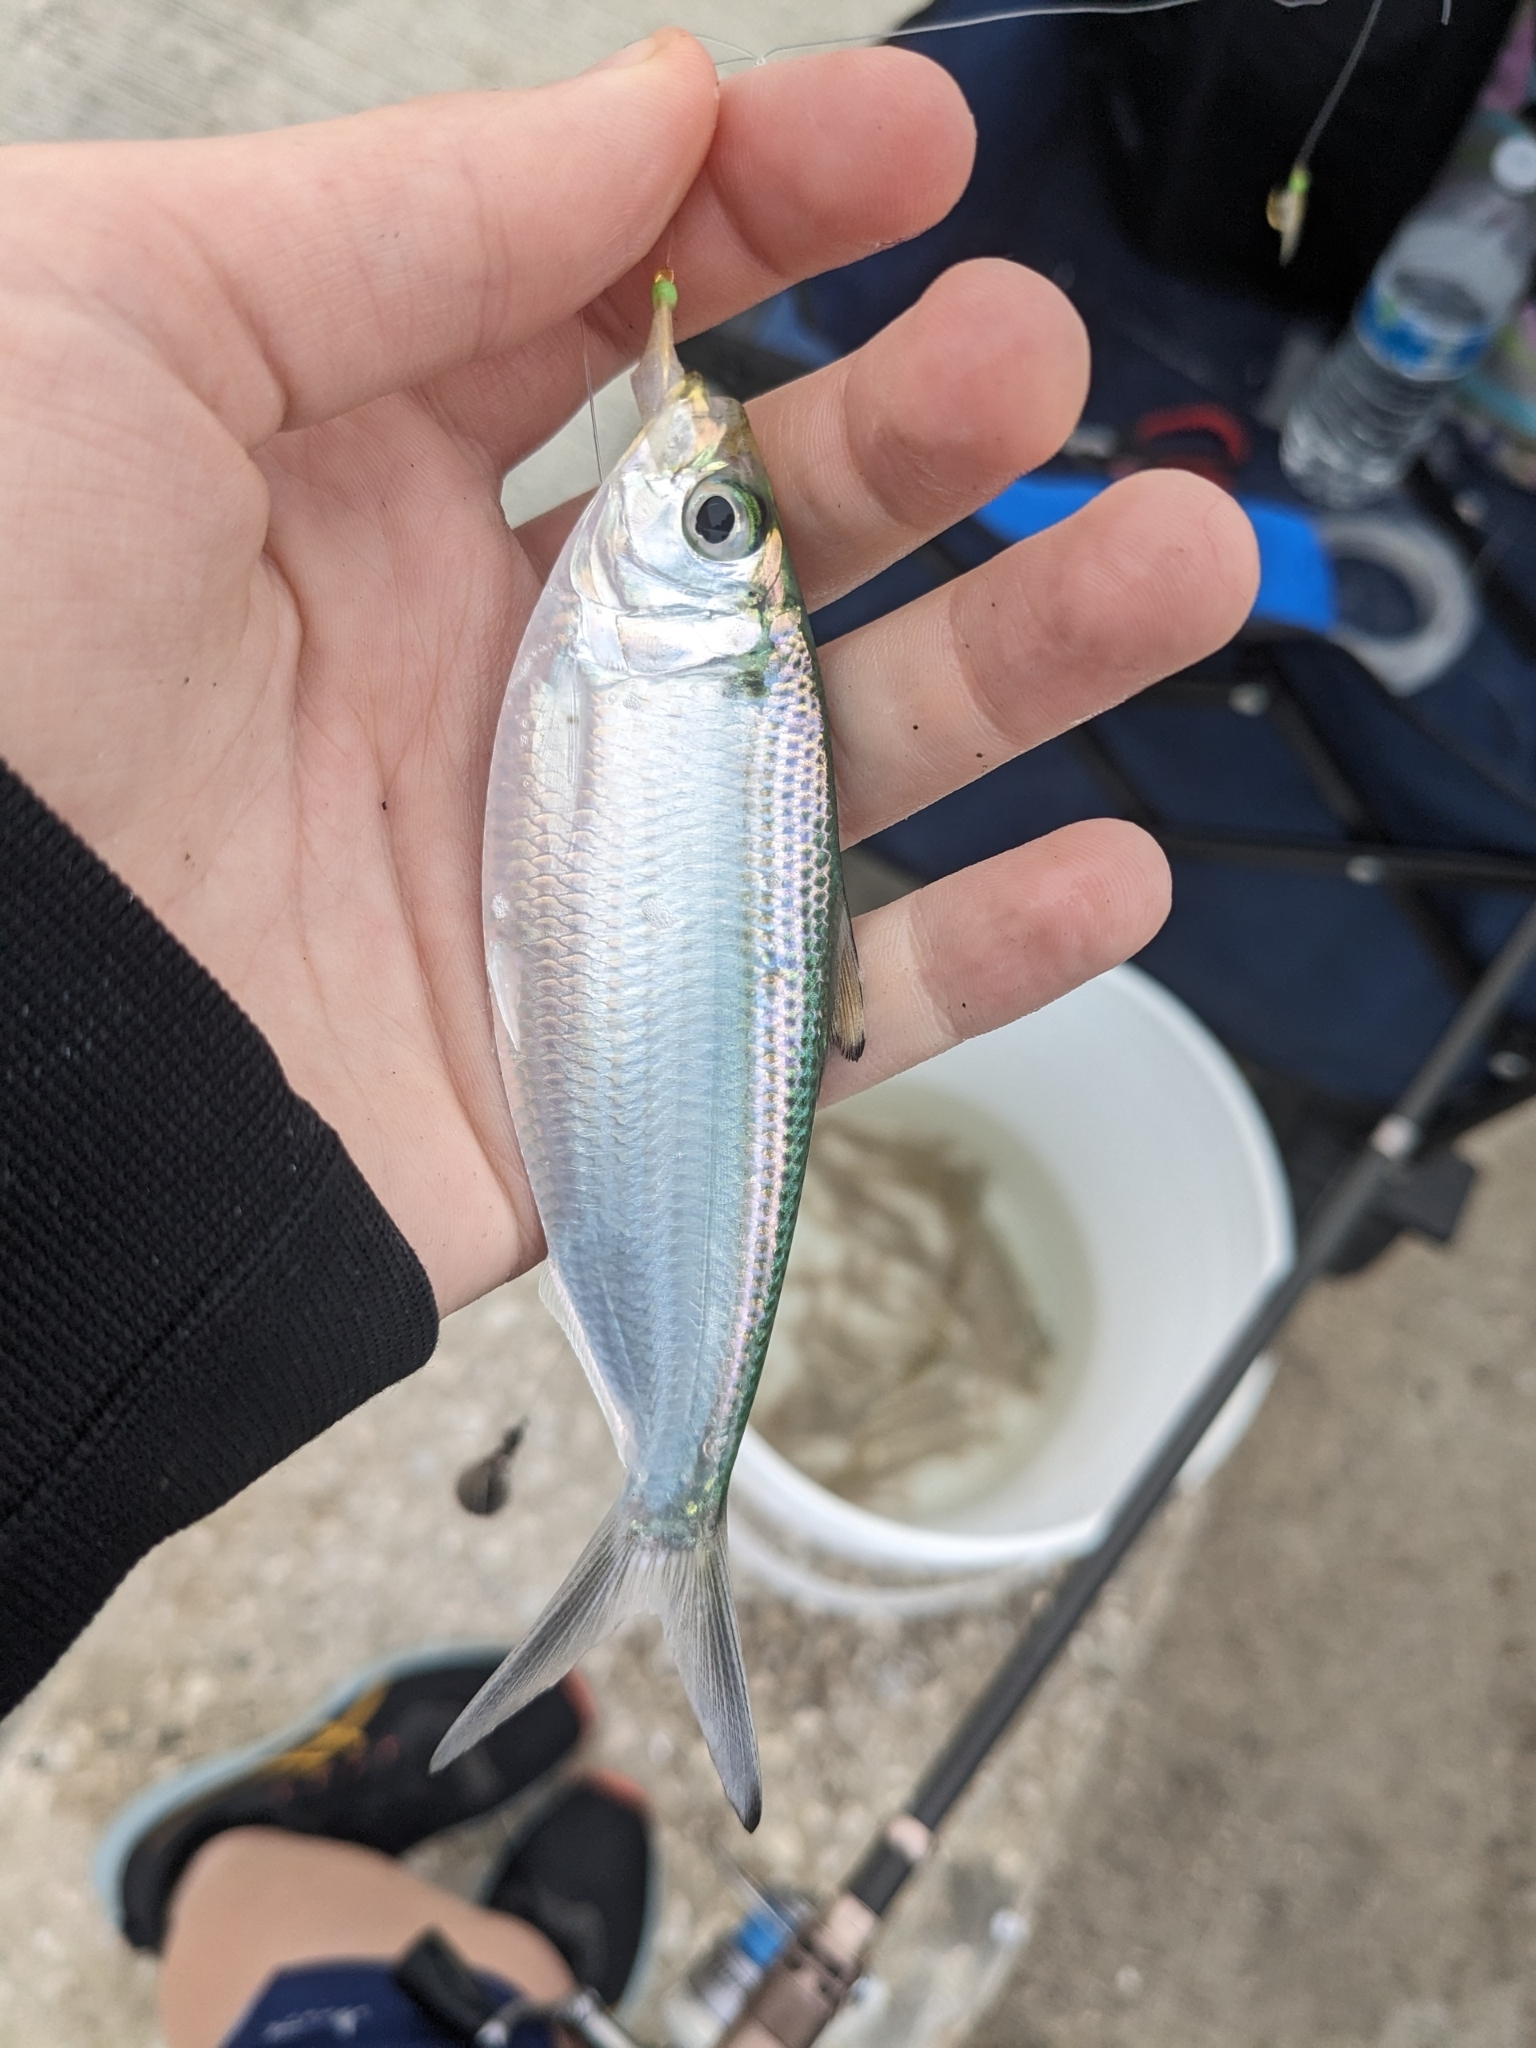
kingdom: Animalia
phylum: Chordata
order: Clupeiformes
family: Clupeidae
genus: Opisthonema
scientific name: Opisthonema oglinum
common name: Thread herring
